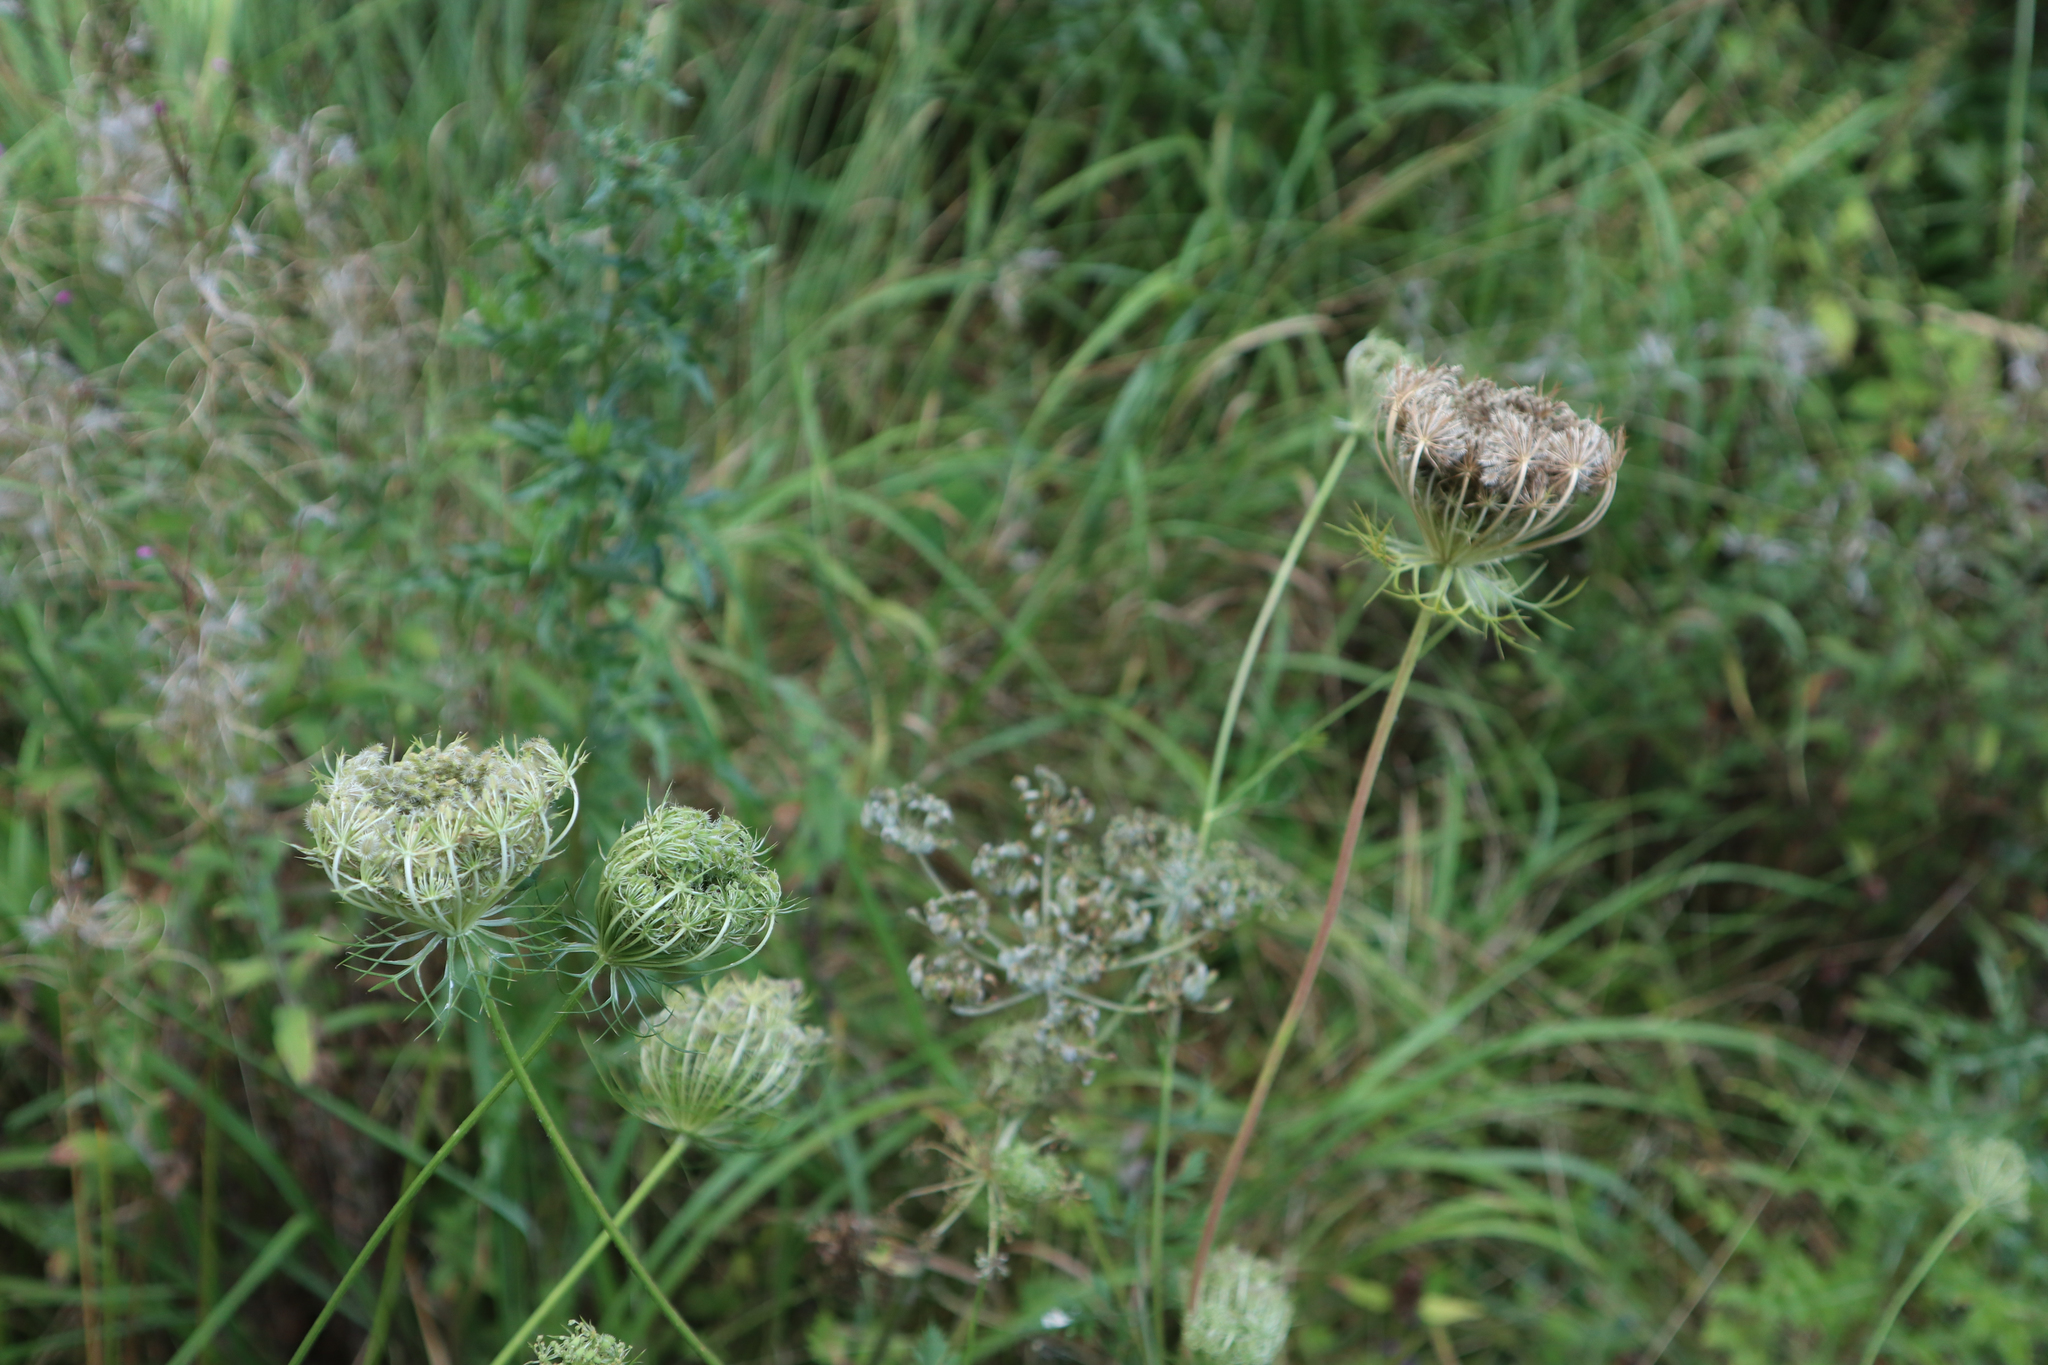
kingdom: Plantae
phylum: Tracheophyta
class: Magnoliopsida
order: Apiales
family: Apiaceae
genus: Daucus
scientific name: Daucus carota
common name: Wild carrot
